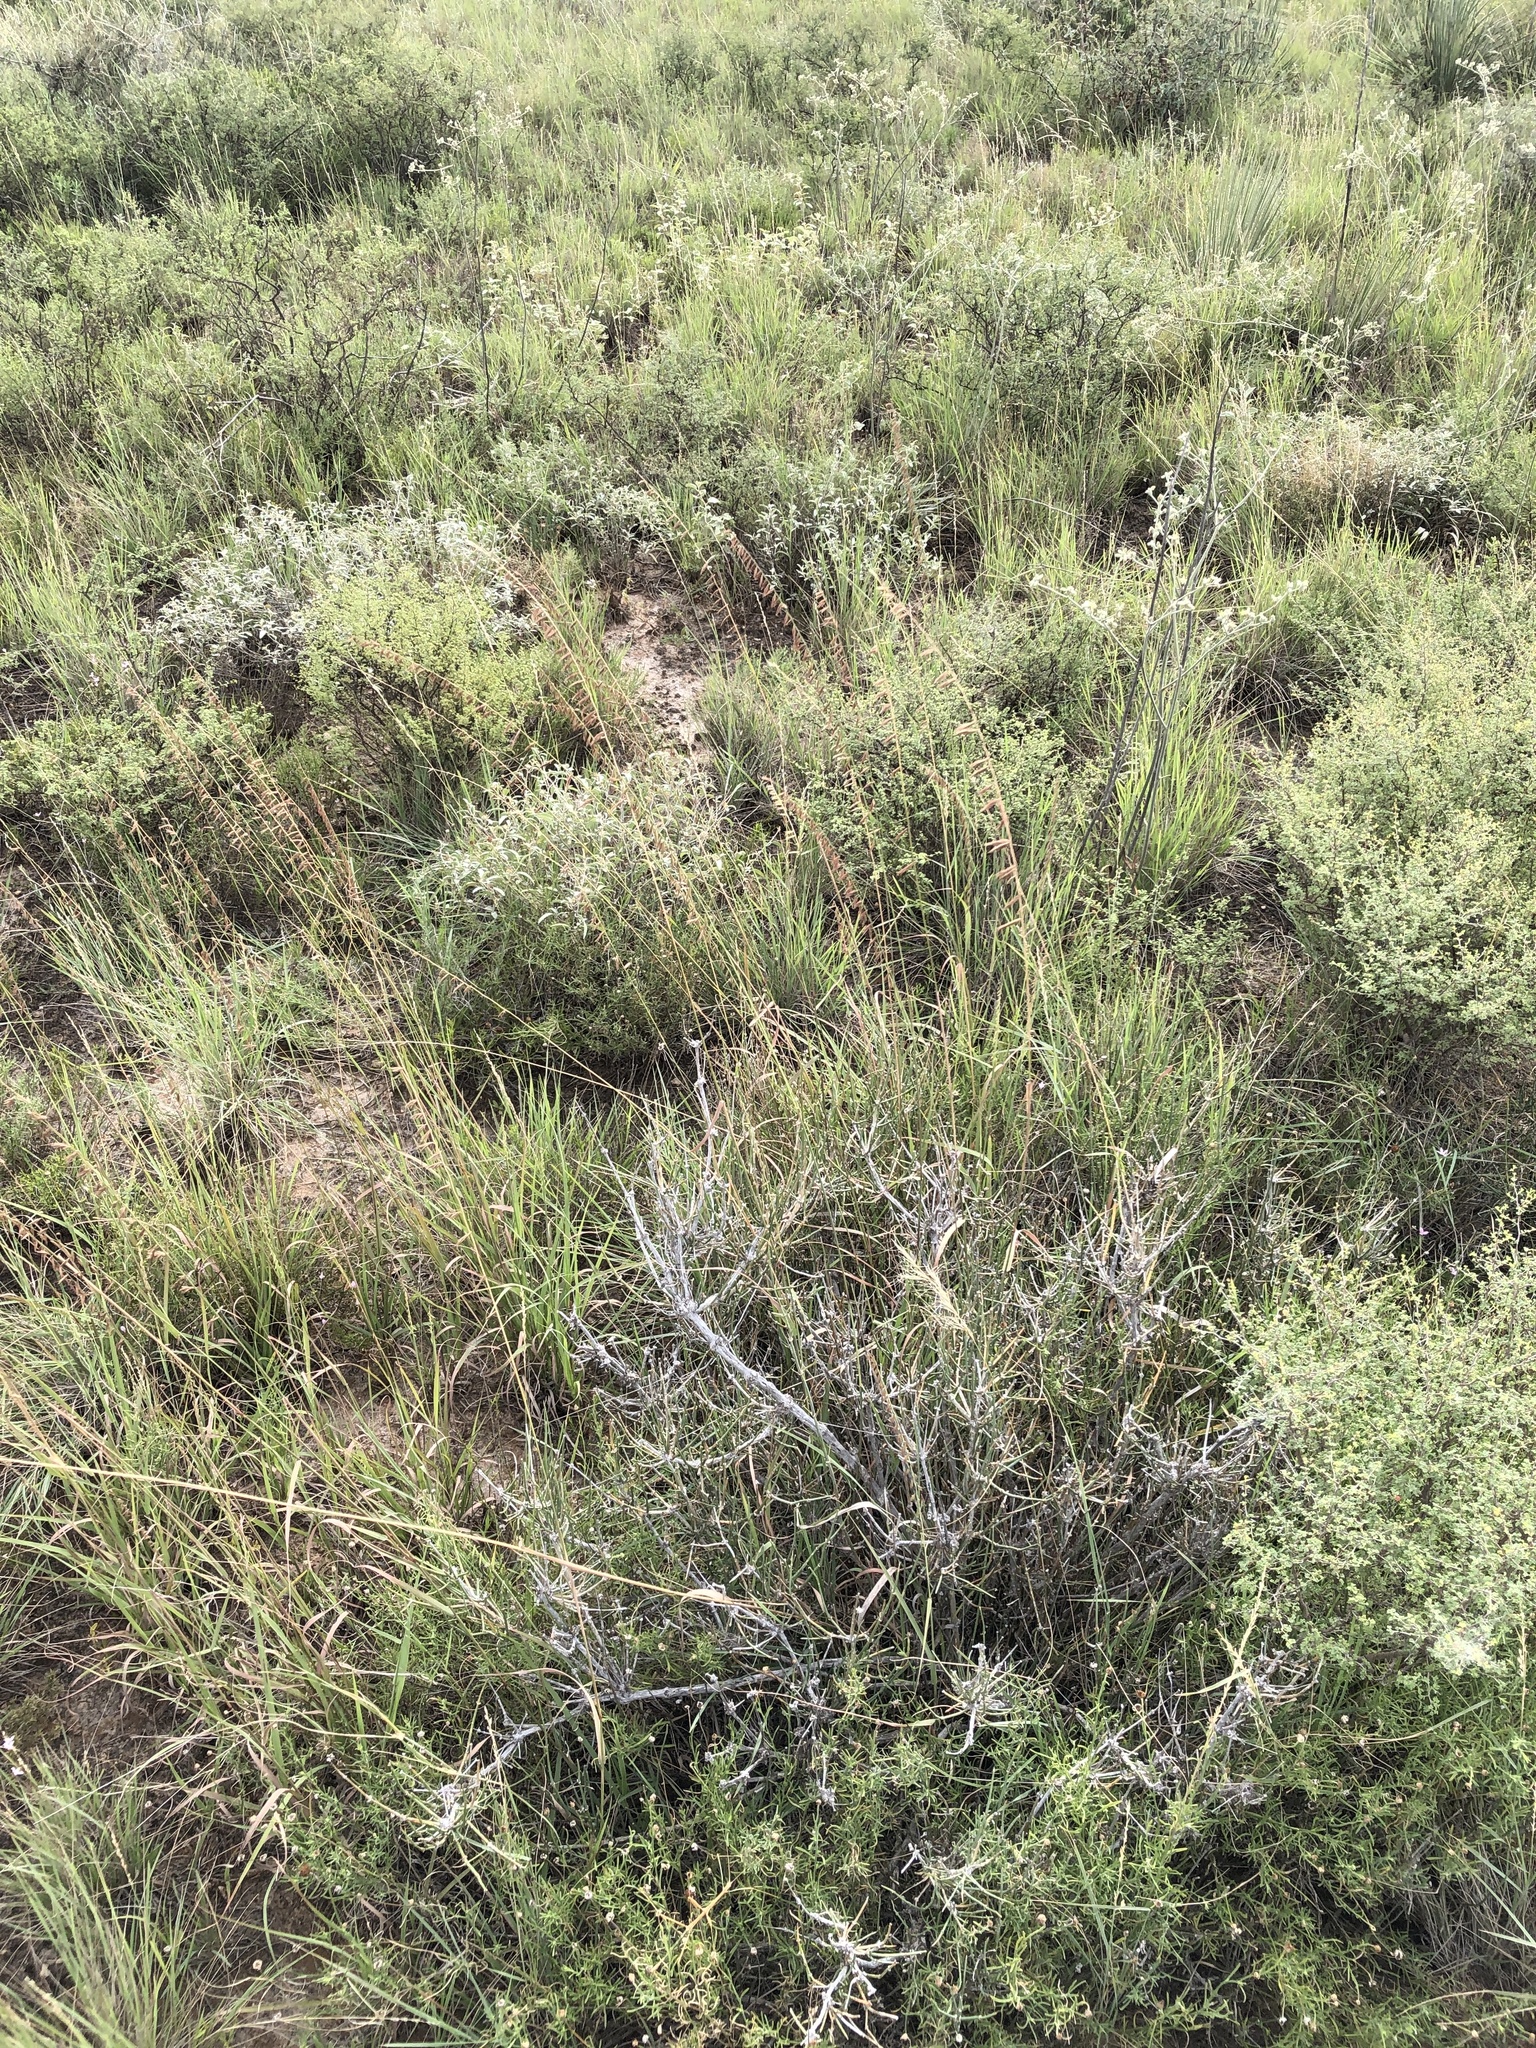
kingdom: Plantae
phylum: Tracheophyta
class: Liliopsida
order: Poales
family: Poaceae
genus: Bouteloua
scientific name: Bouteloua curtipendula
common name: Side-oats grama
